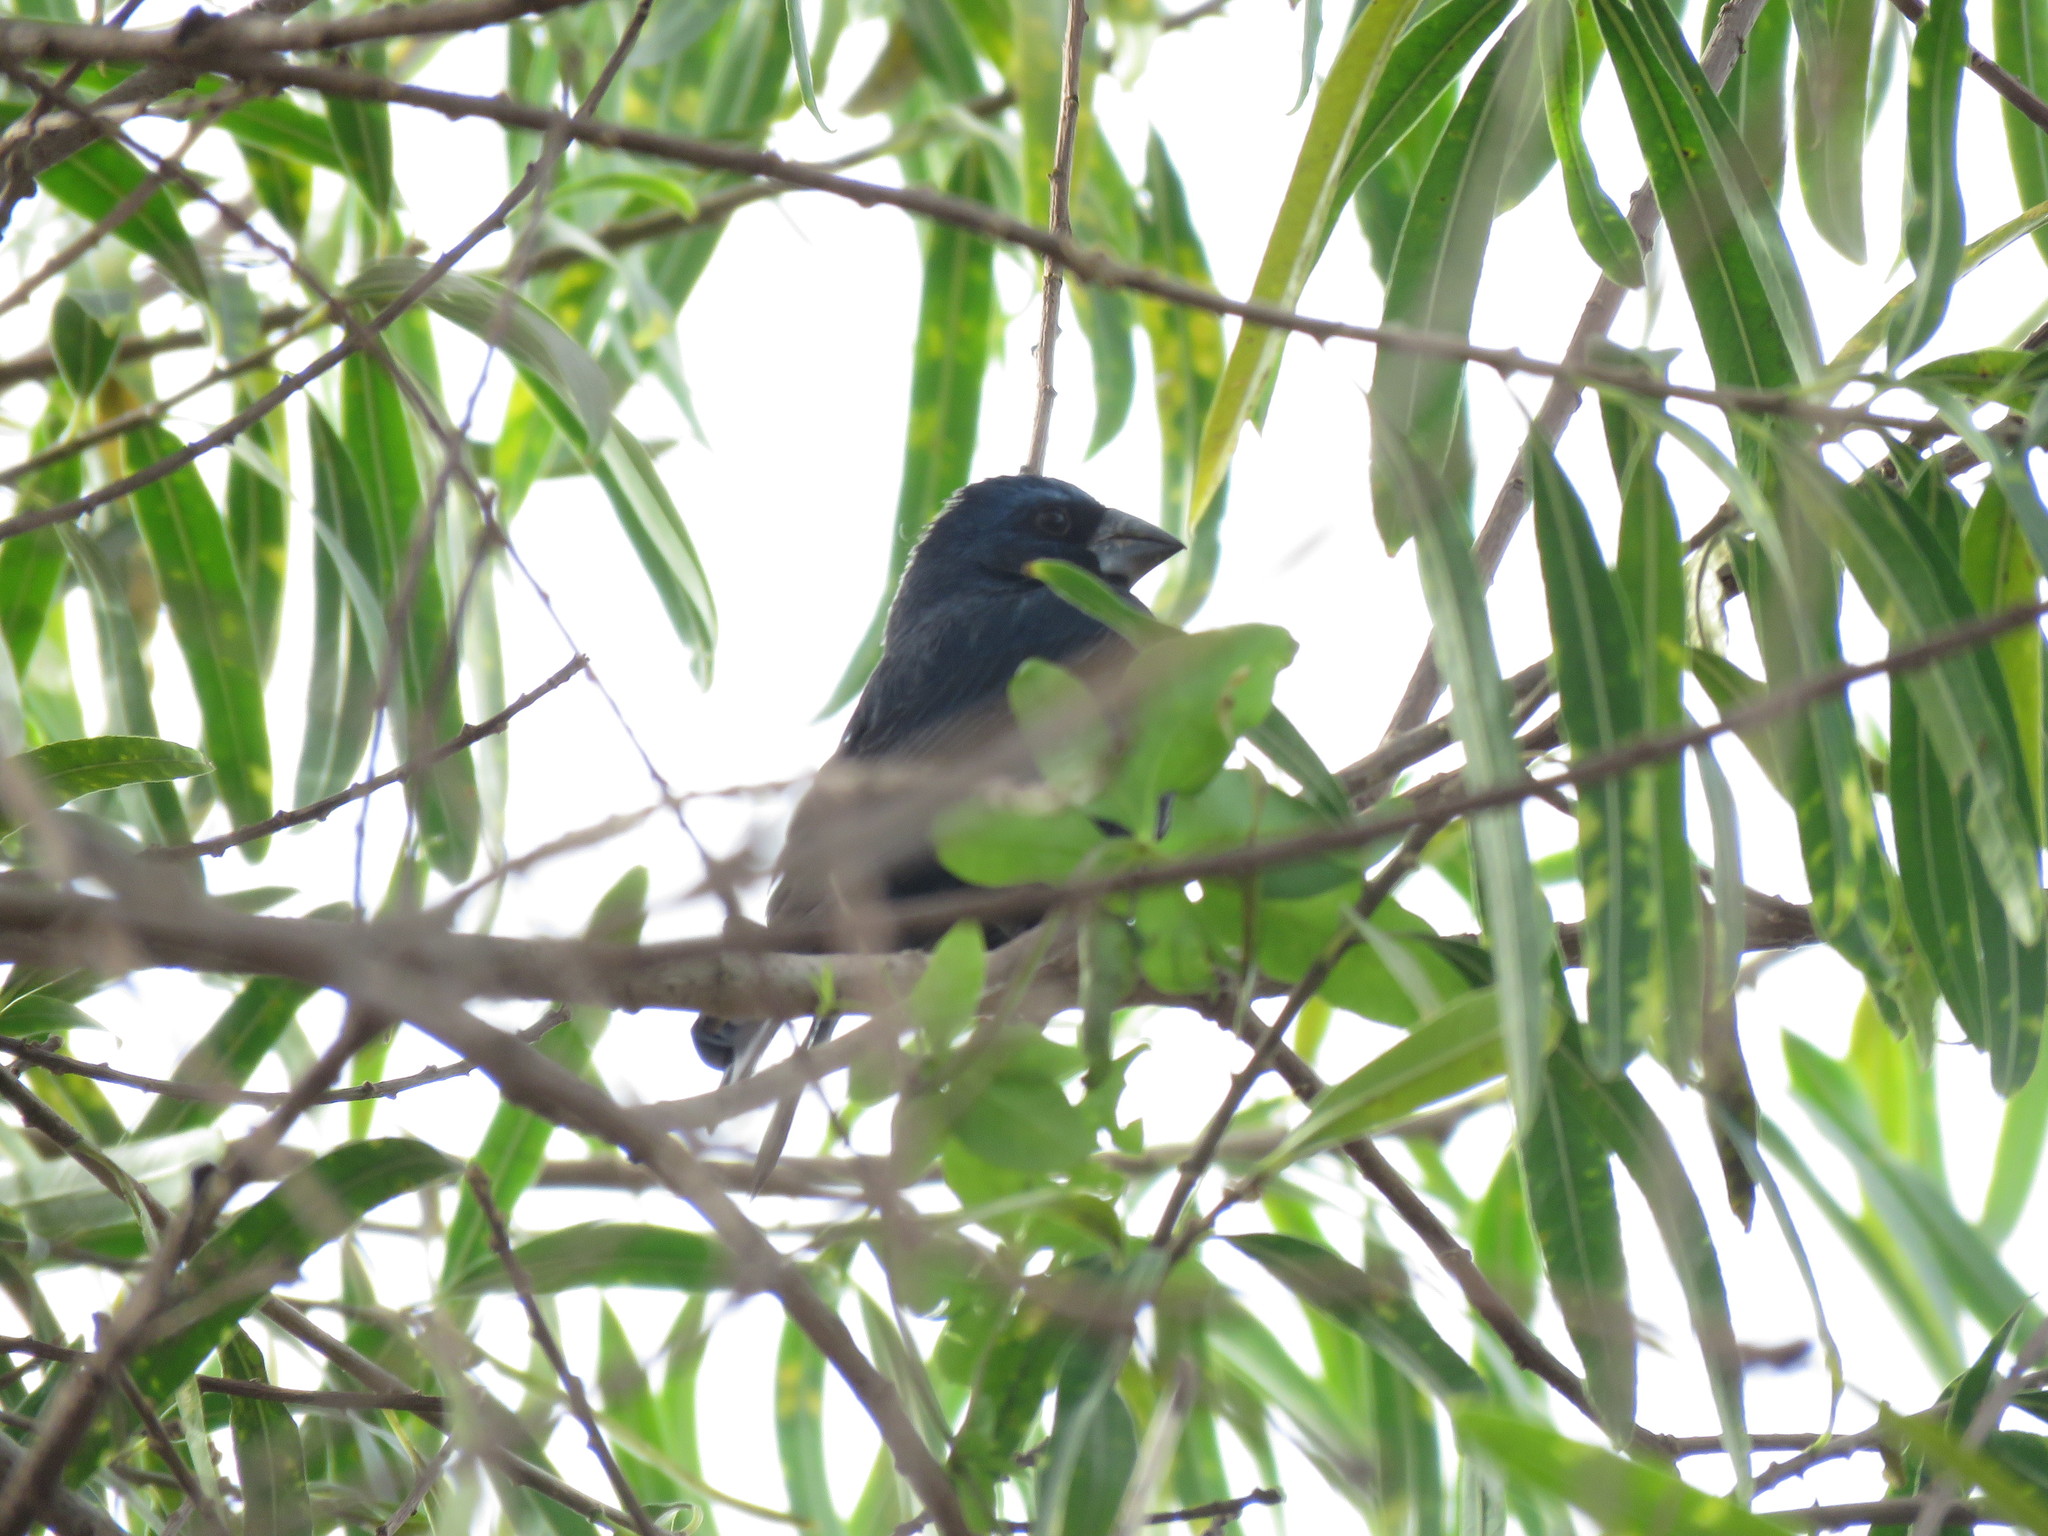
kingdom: Animalia
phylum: Chordata
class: Aves
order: Passeriformes
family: Cardinalidae
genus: Cyanoloxia
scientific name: Cyanoloxia brissonii
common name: Ultramarine grosbeak
